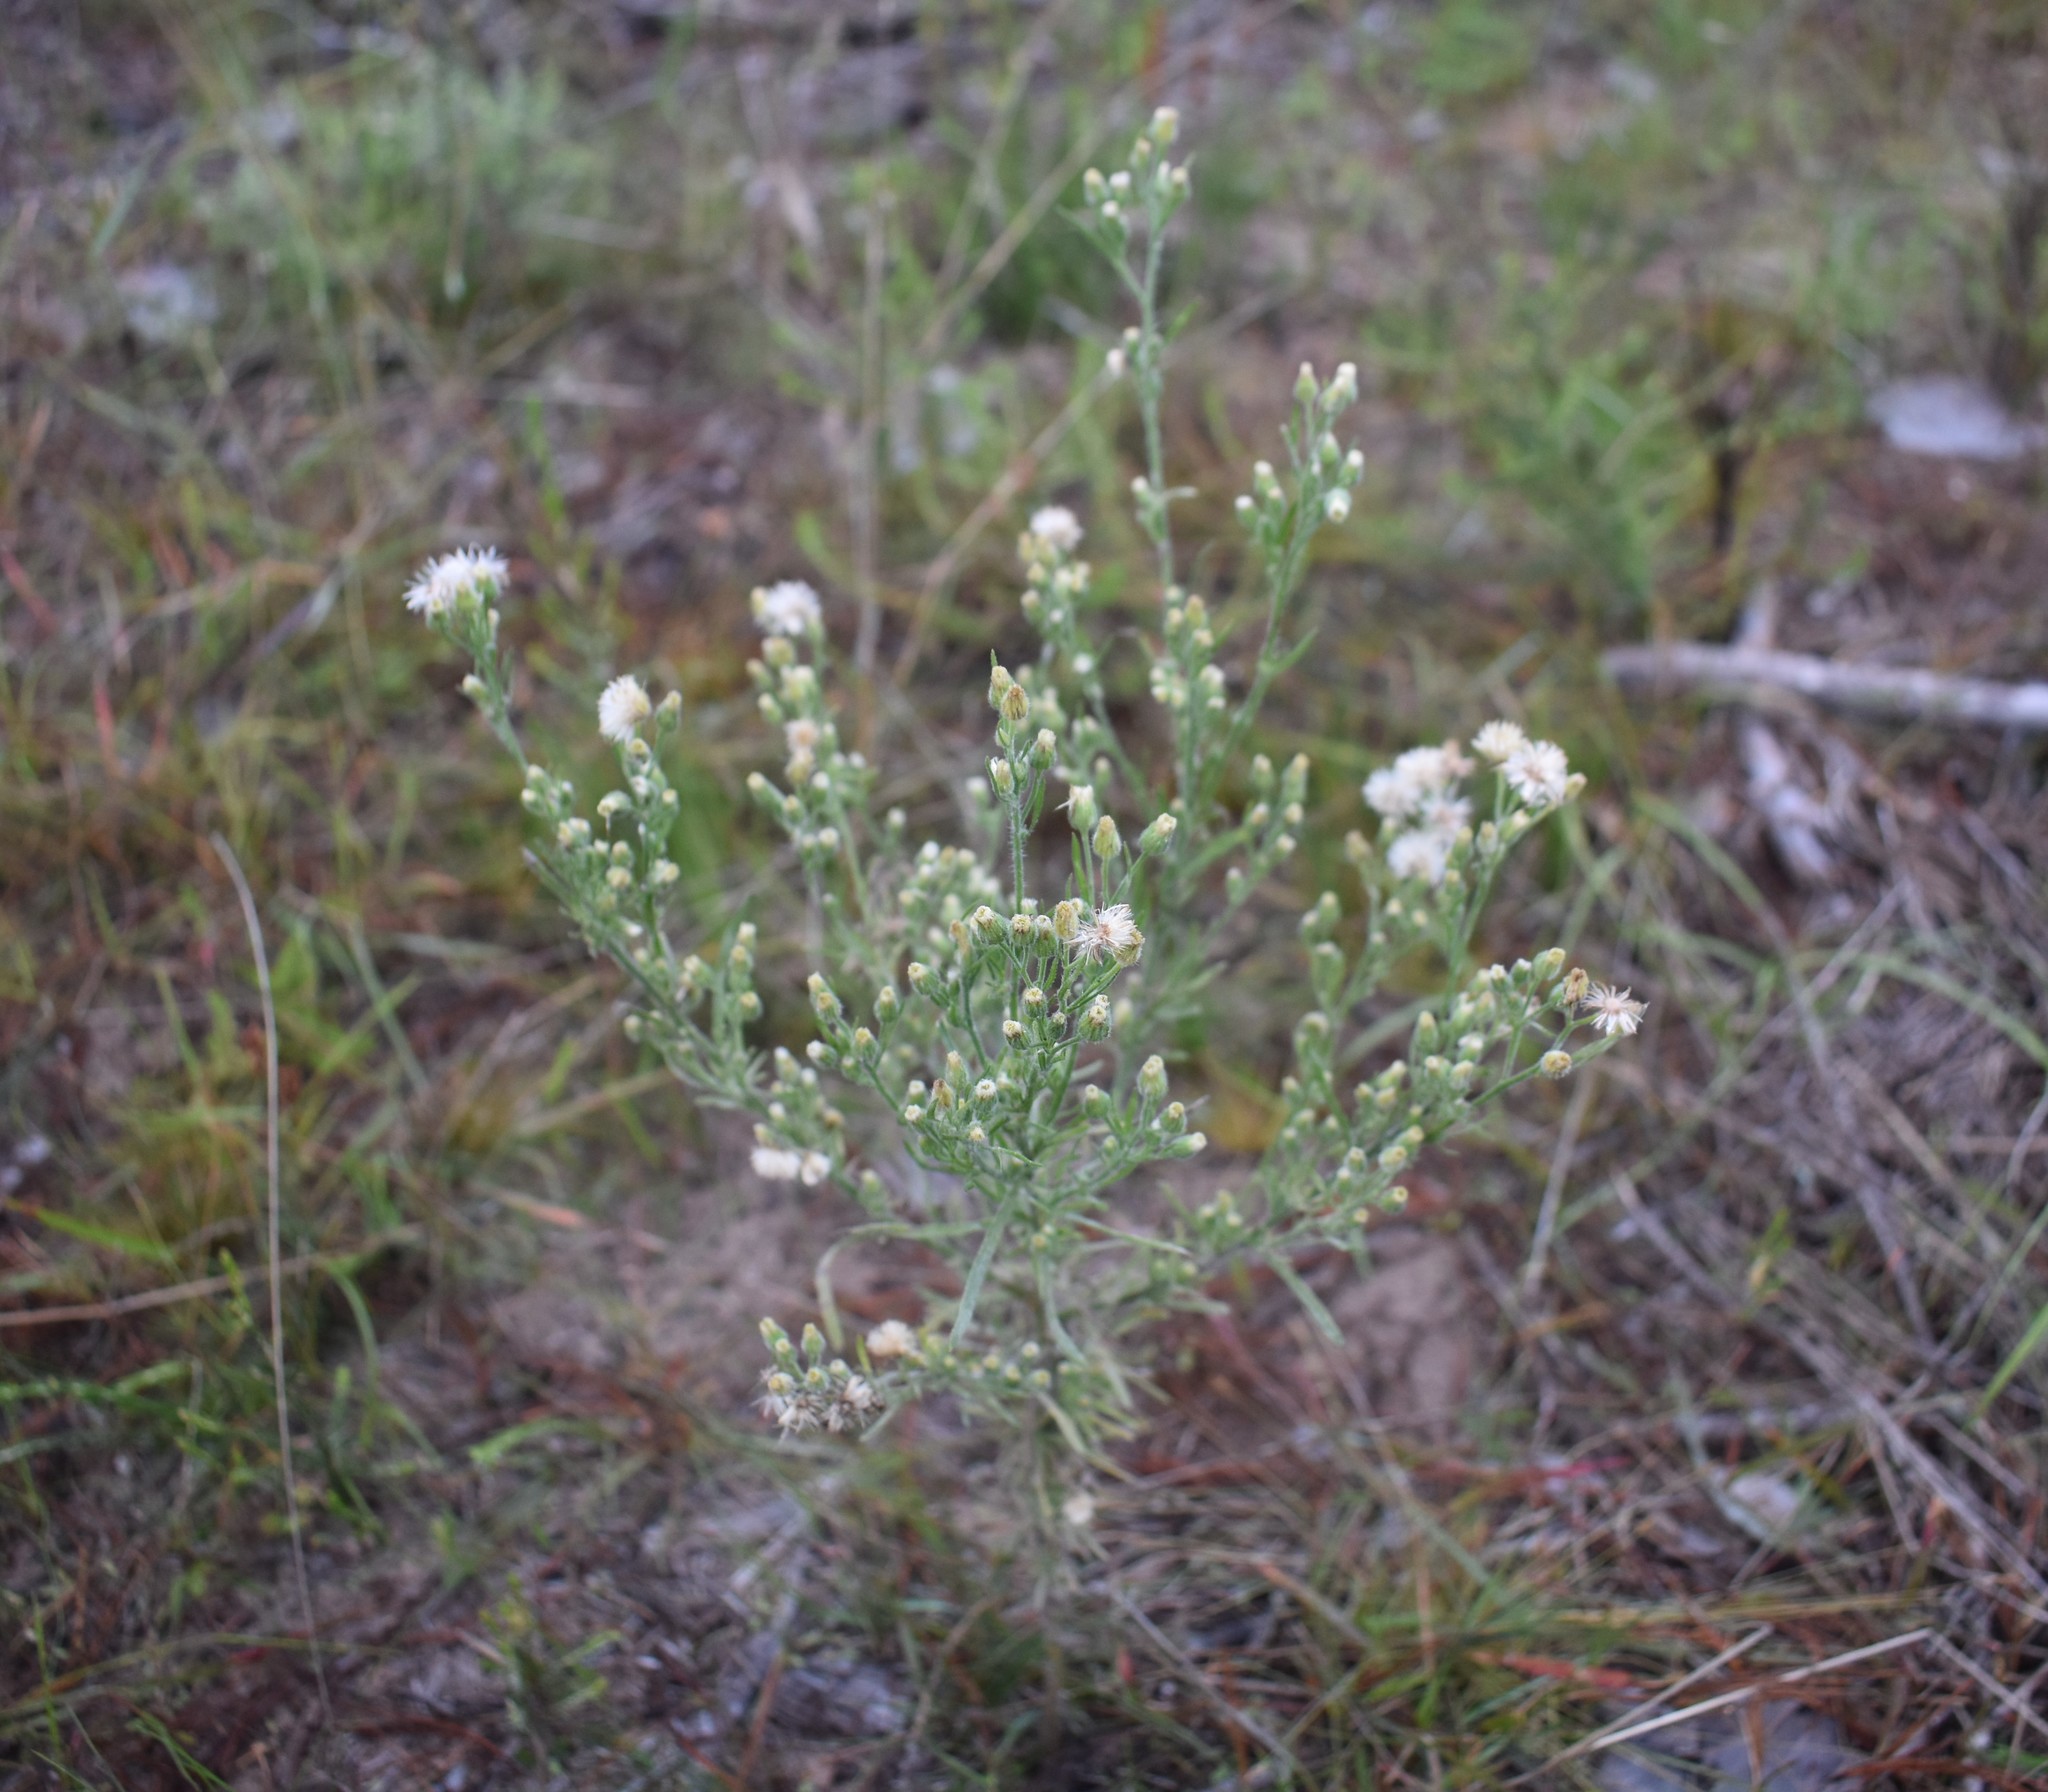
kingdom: Plantae
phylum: Tracheophyta
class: Magnoliopsida
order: Asterales
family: Asteraceae
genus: Erigeron
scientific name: Erigeron bonariensis
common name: Argentine fleabane
